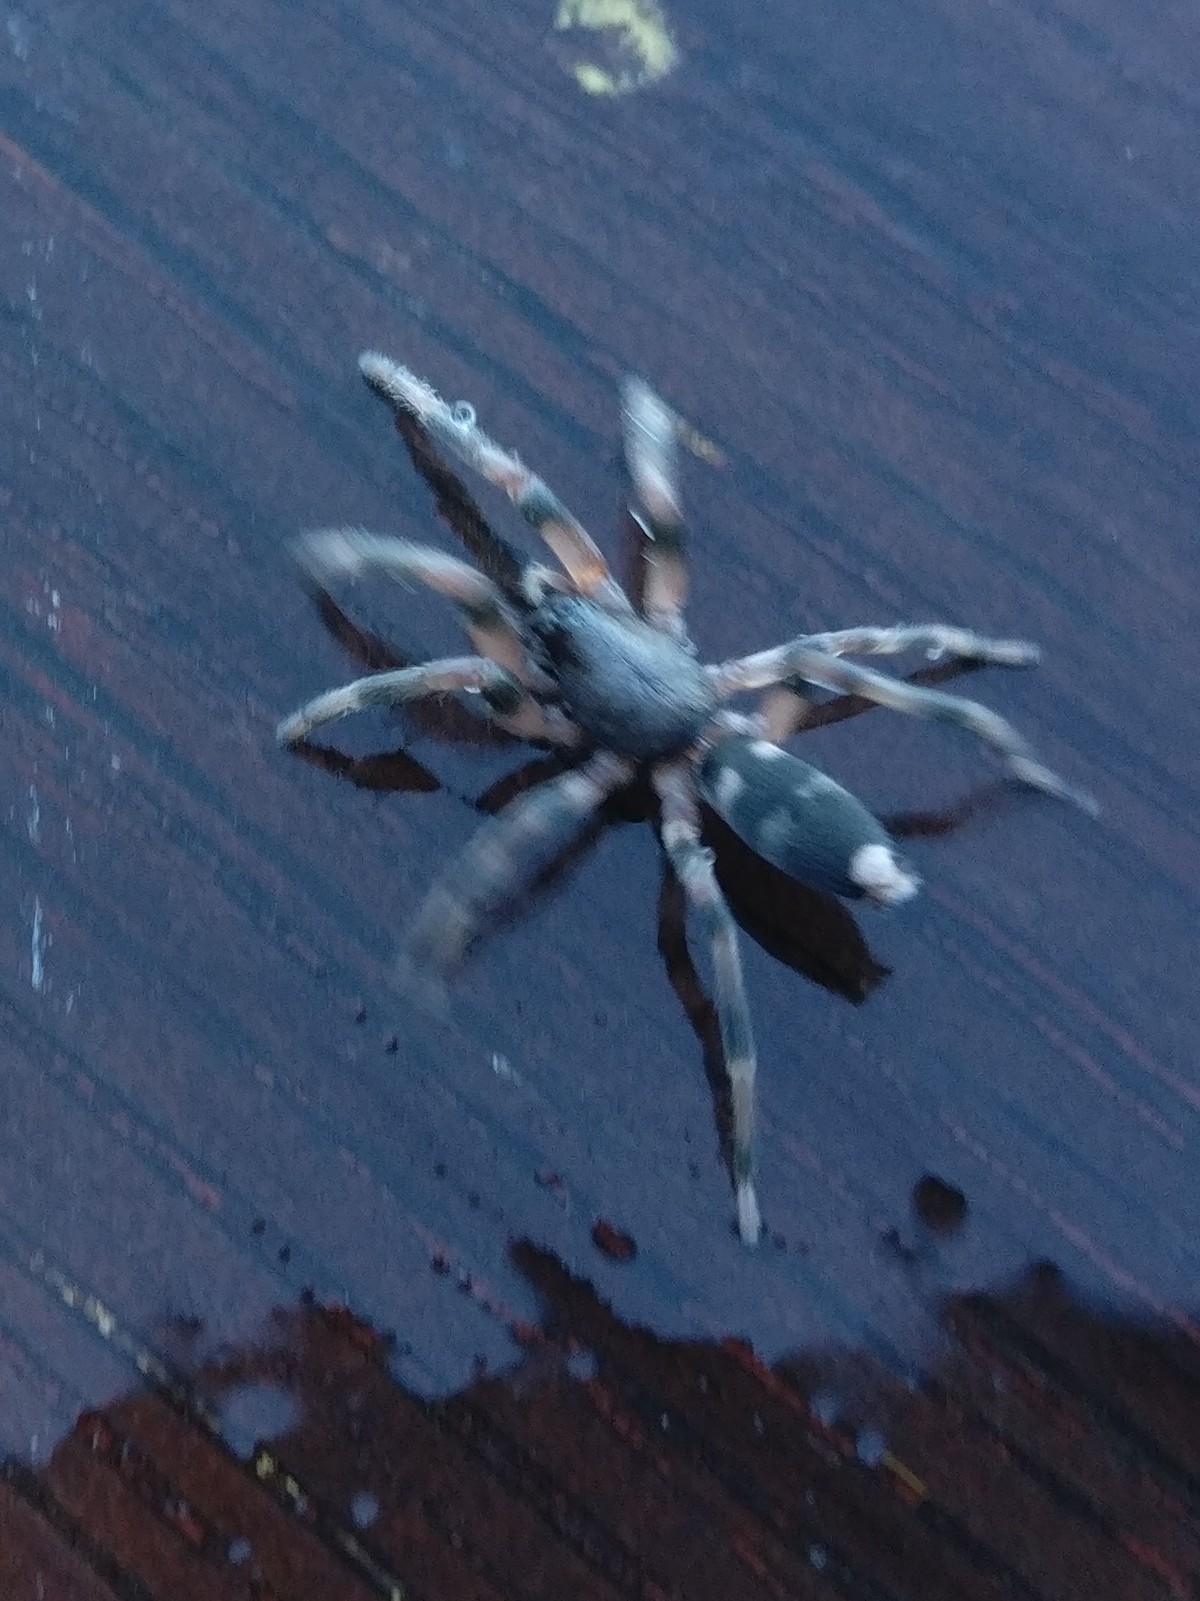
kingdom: Animalia
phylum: Arthropoda
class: Arachnida
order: Araneae
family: Lamponidae
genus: Lampona
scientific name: Lampona murina
